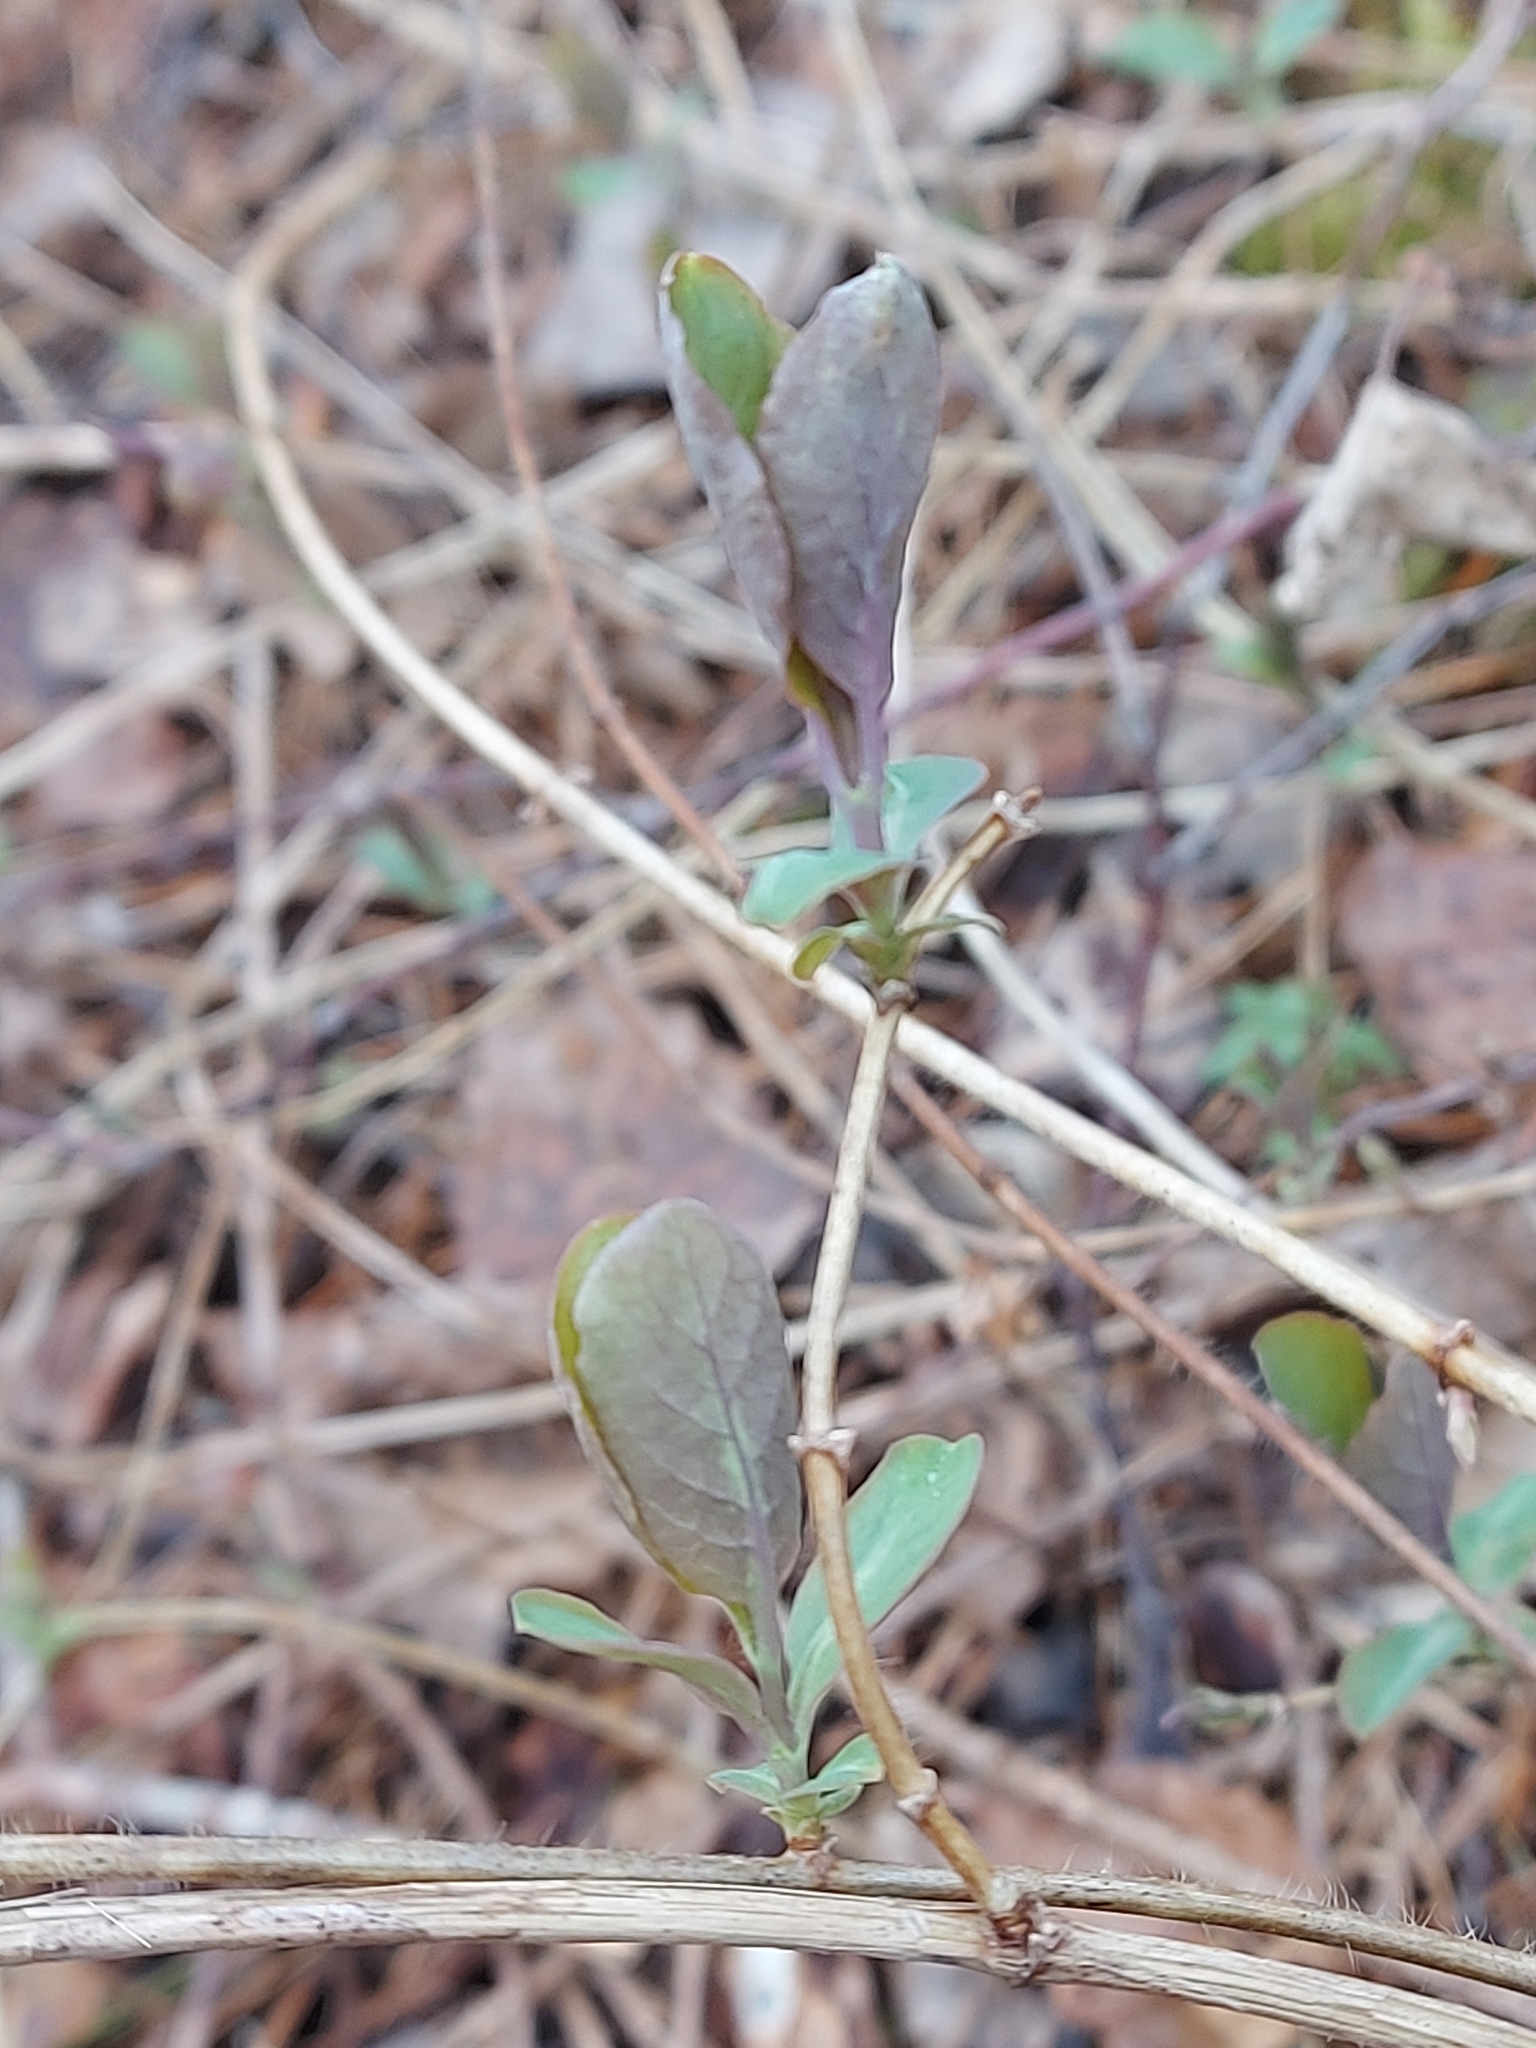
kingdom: Plantae
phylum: Tracheophyta
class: Magnoliopsida
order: Dipsacales
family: Caprifoliaceae
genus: Lonicera
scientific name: Lonicera periclymenum
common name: European honeysuckle
